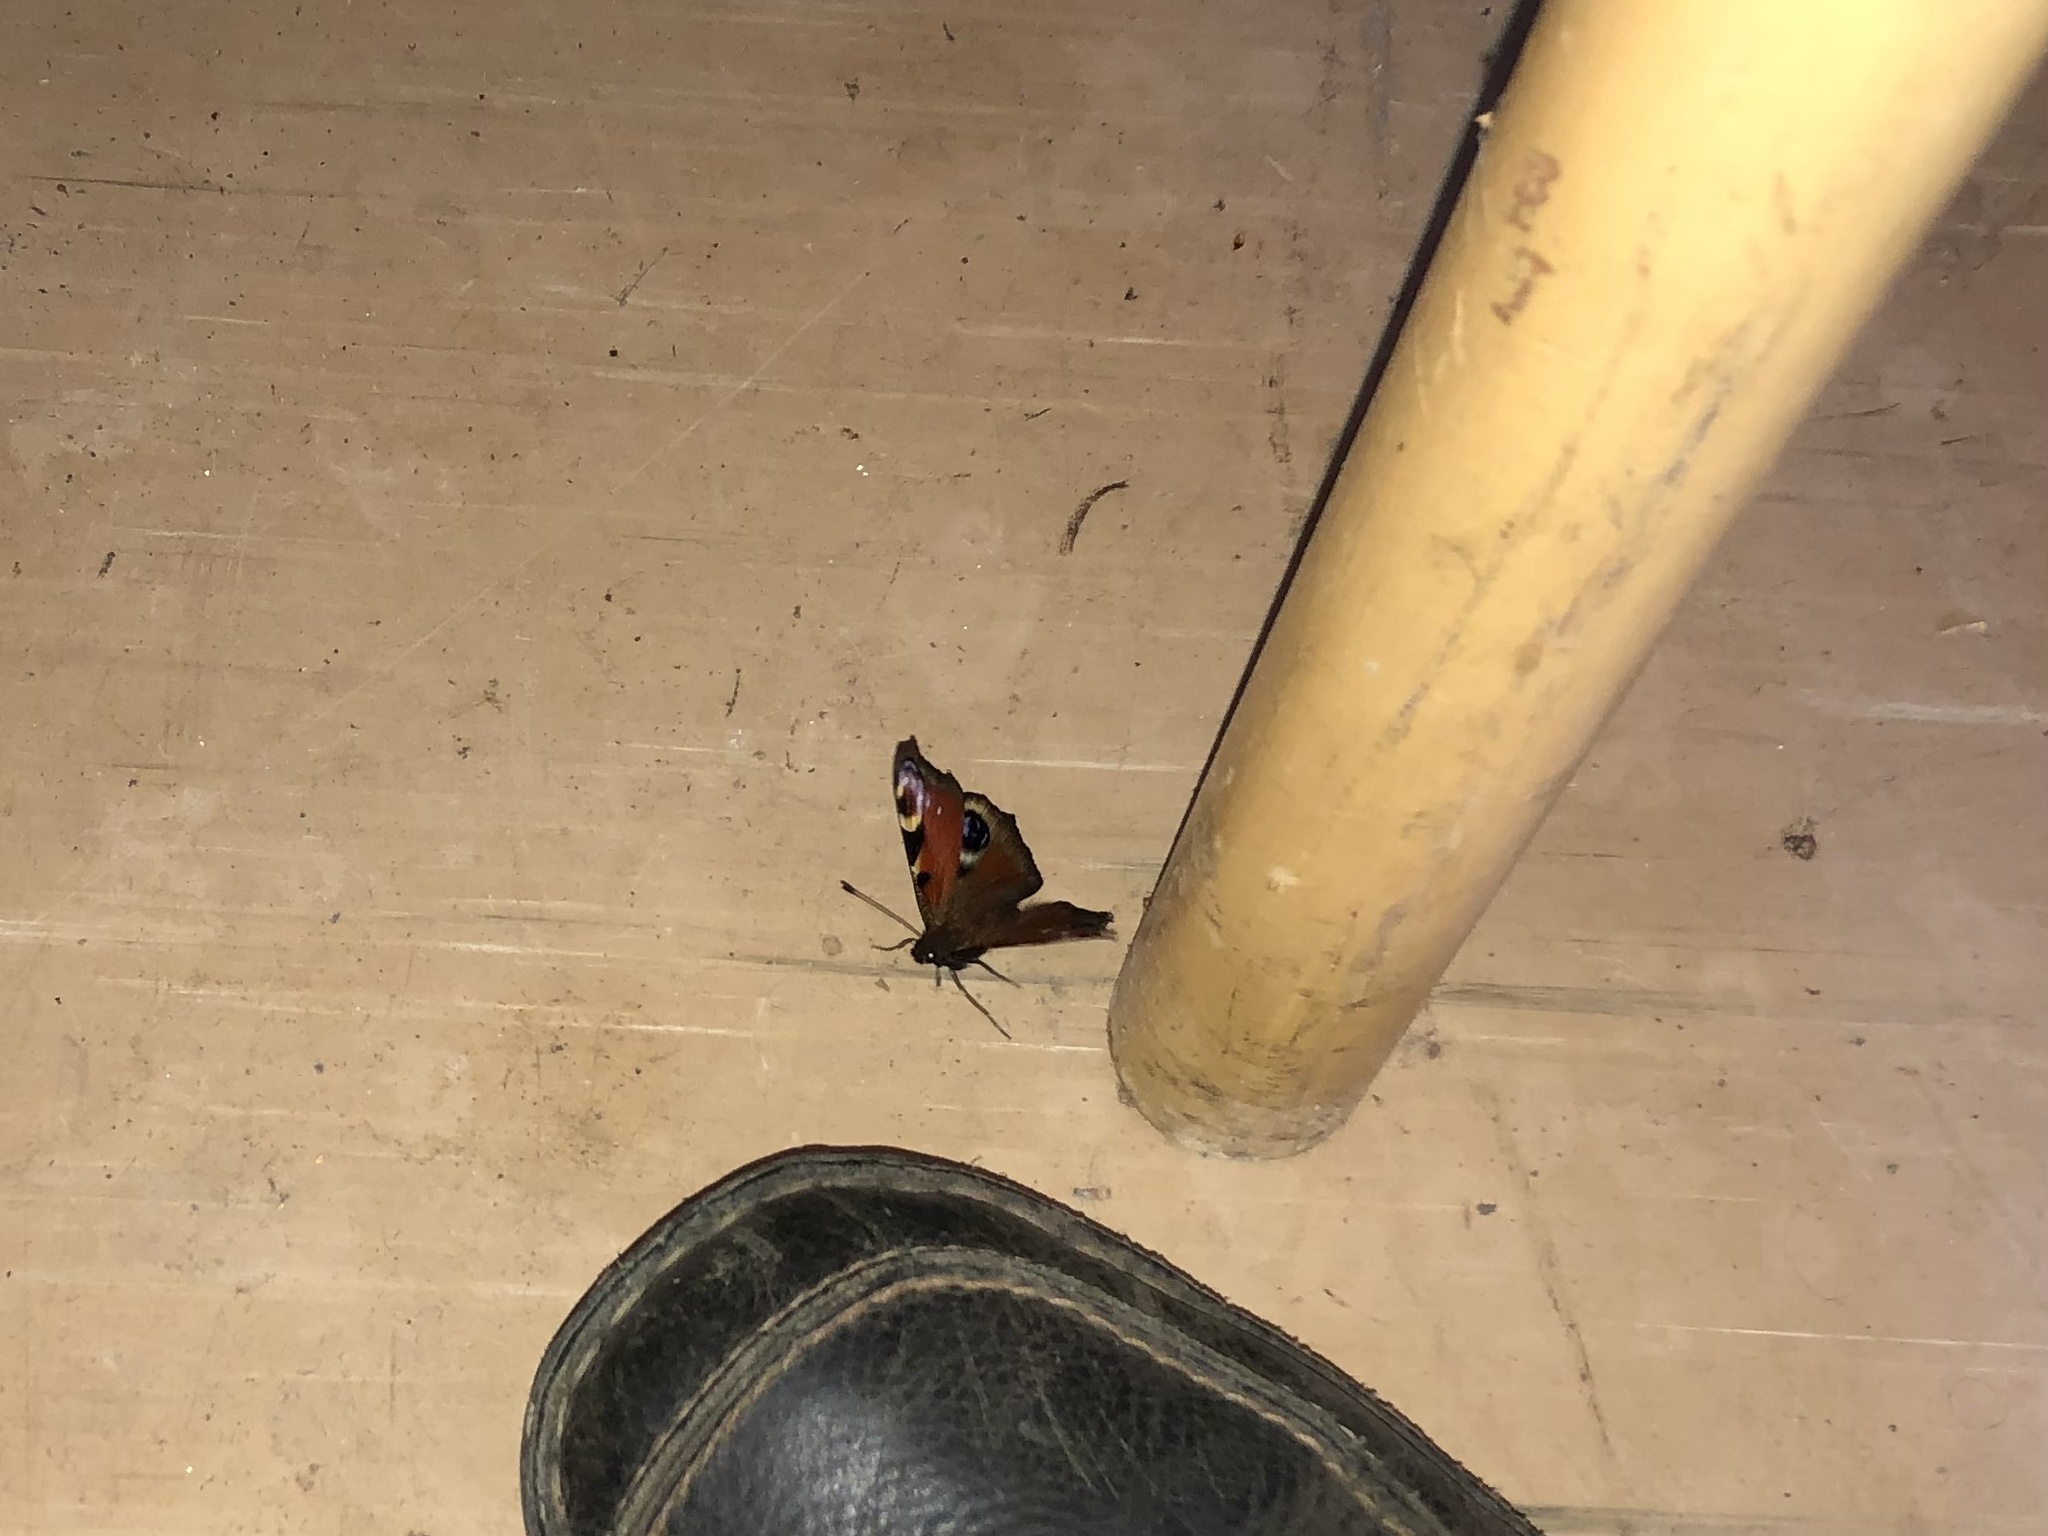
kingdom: Animalia
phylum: Arthropoda
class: Insecta
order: Lepidoptera
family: Nymphalidae
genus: Aglais
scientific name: Aglais io
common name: Peacock
